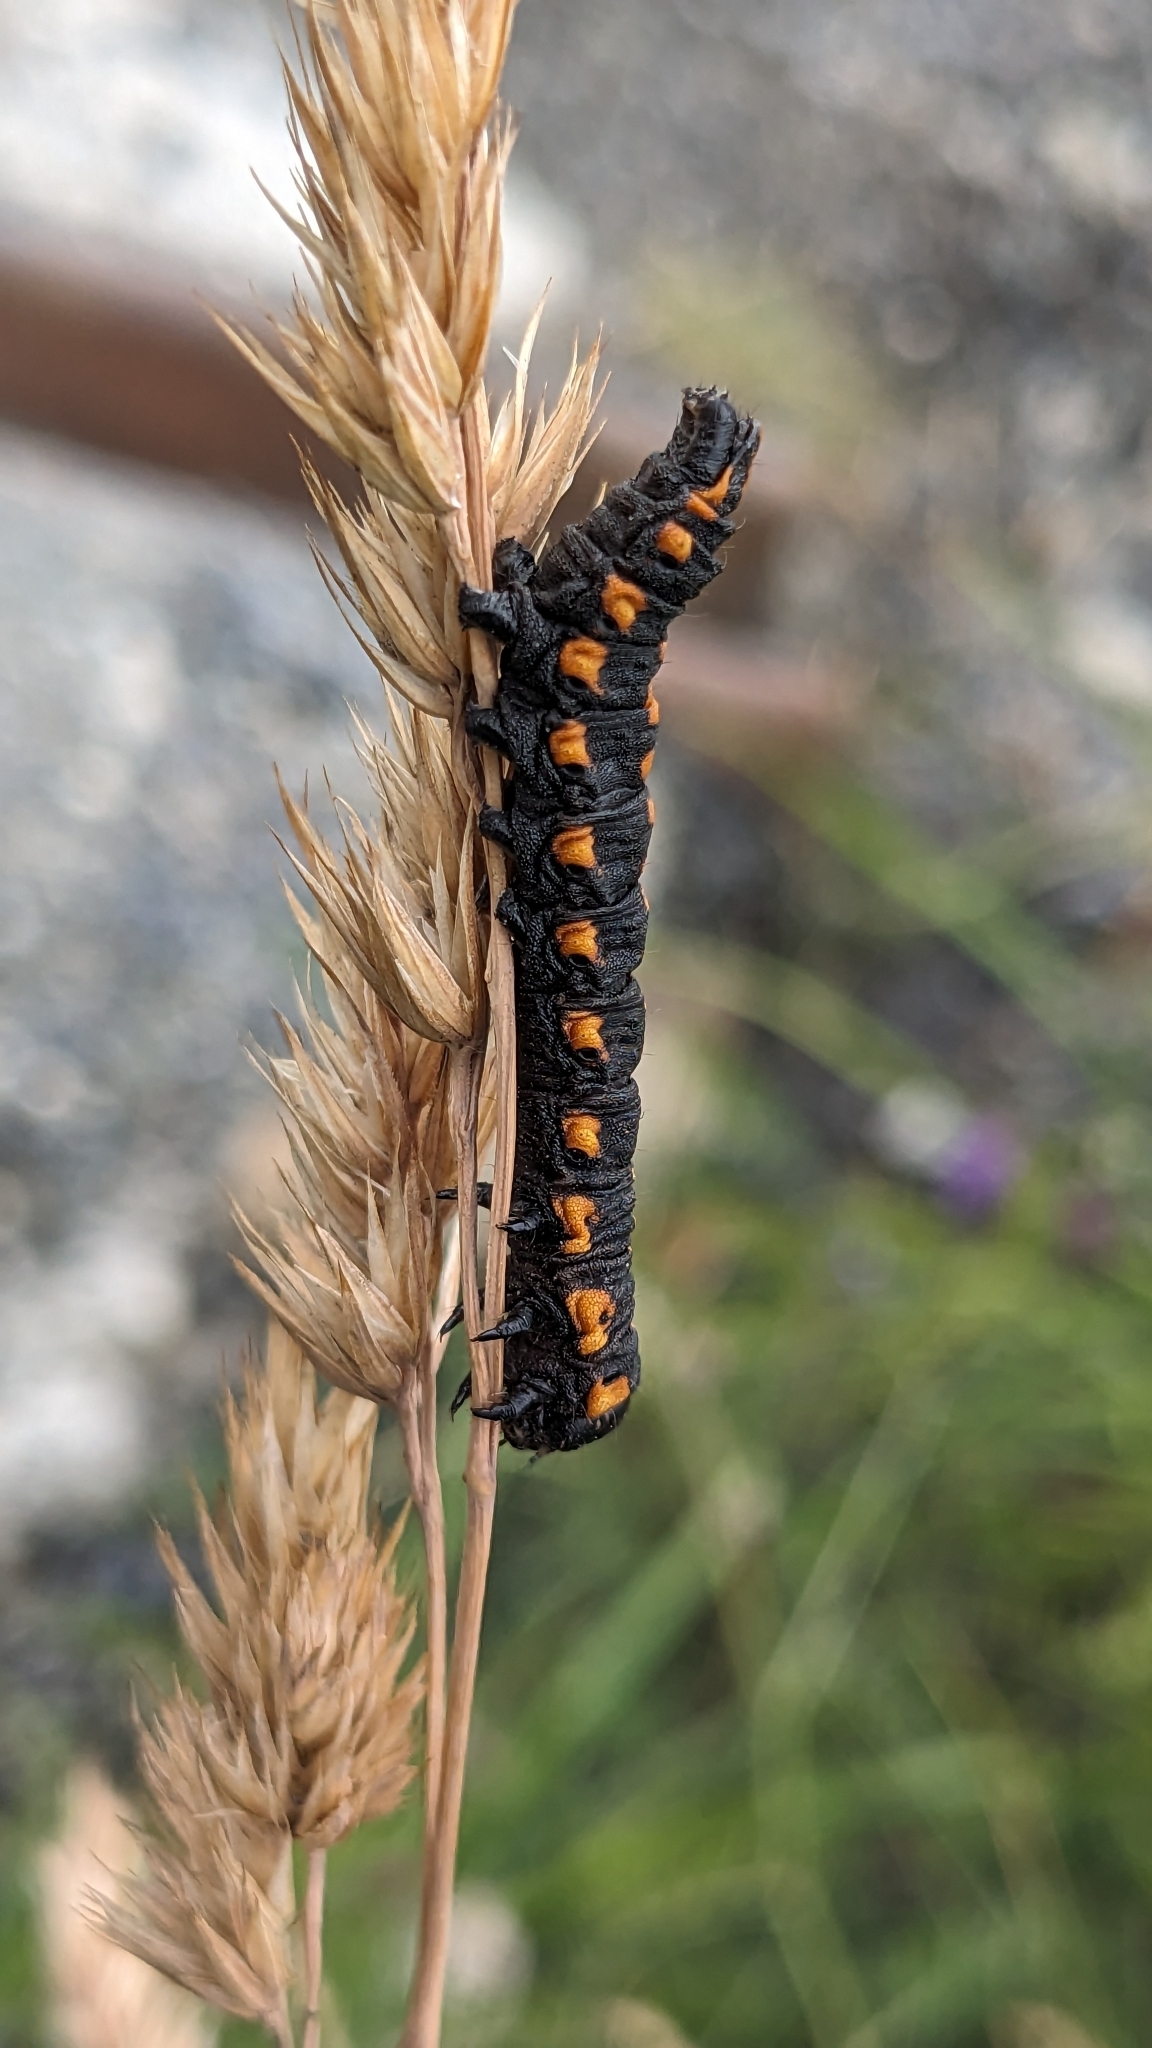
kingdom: Animalia
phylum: Arthropoda
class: Insecta
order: Lepidoptera
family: Noctuidae
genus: Cucullia
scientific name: Cucullia lucifuga
